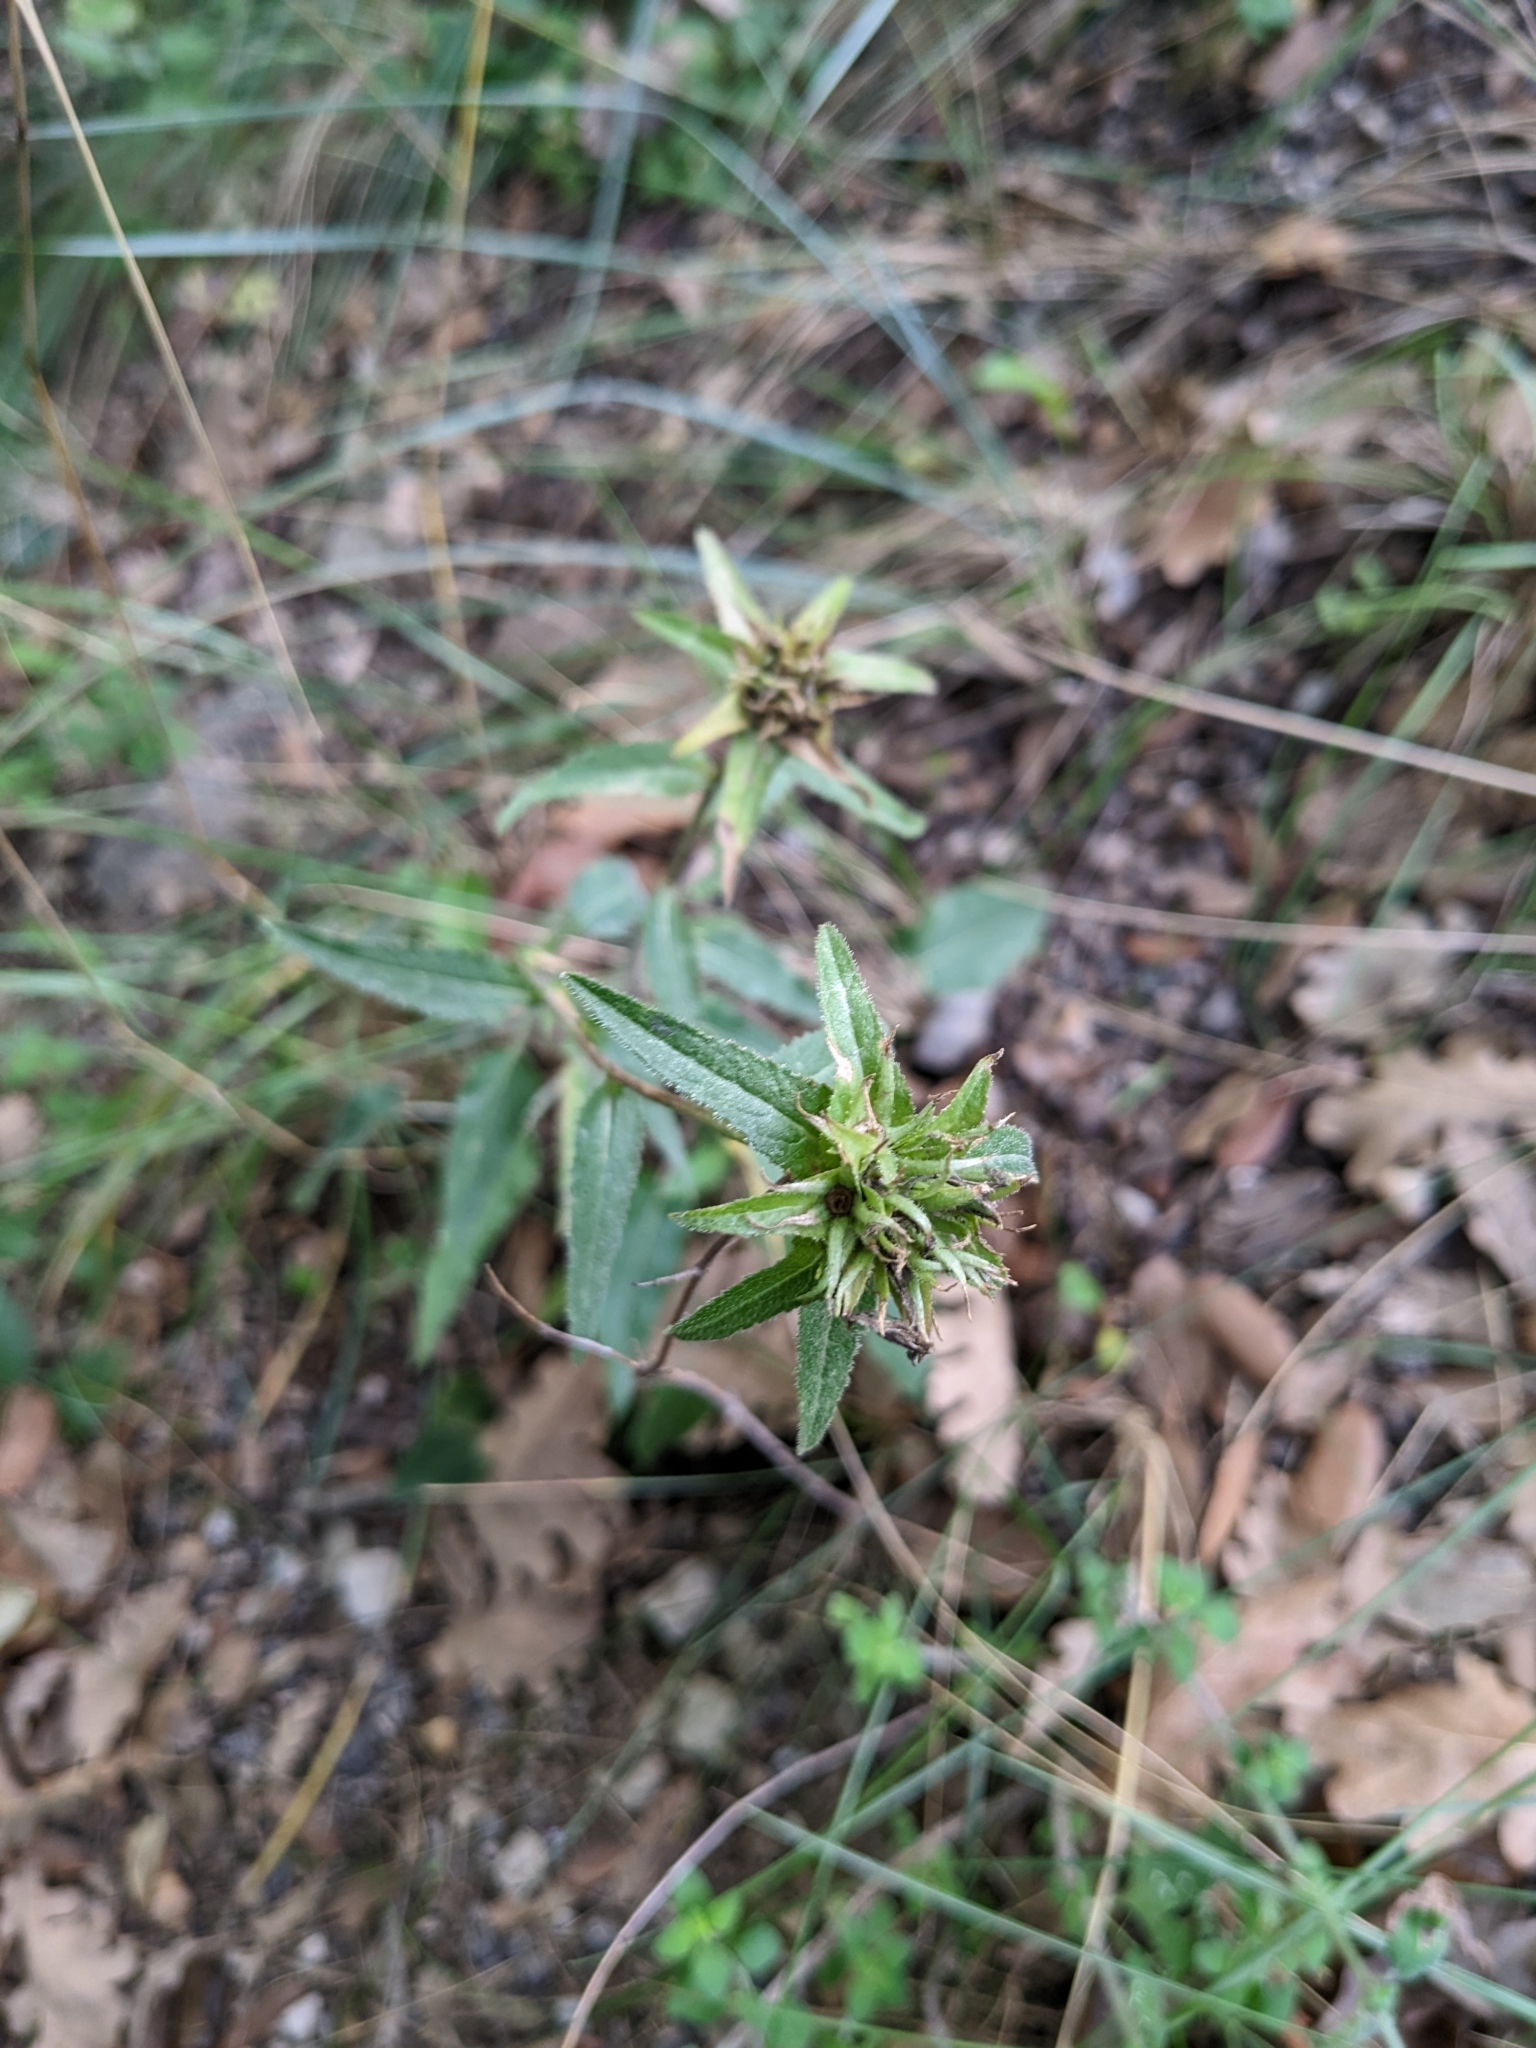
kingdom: Plantae
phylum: Tracheophyta
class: Magnoliopsida
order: Asterales
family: Campanulaceae
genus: Campanula
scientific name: Campanula glomerata
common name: Clustered bellflower
